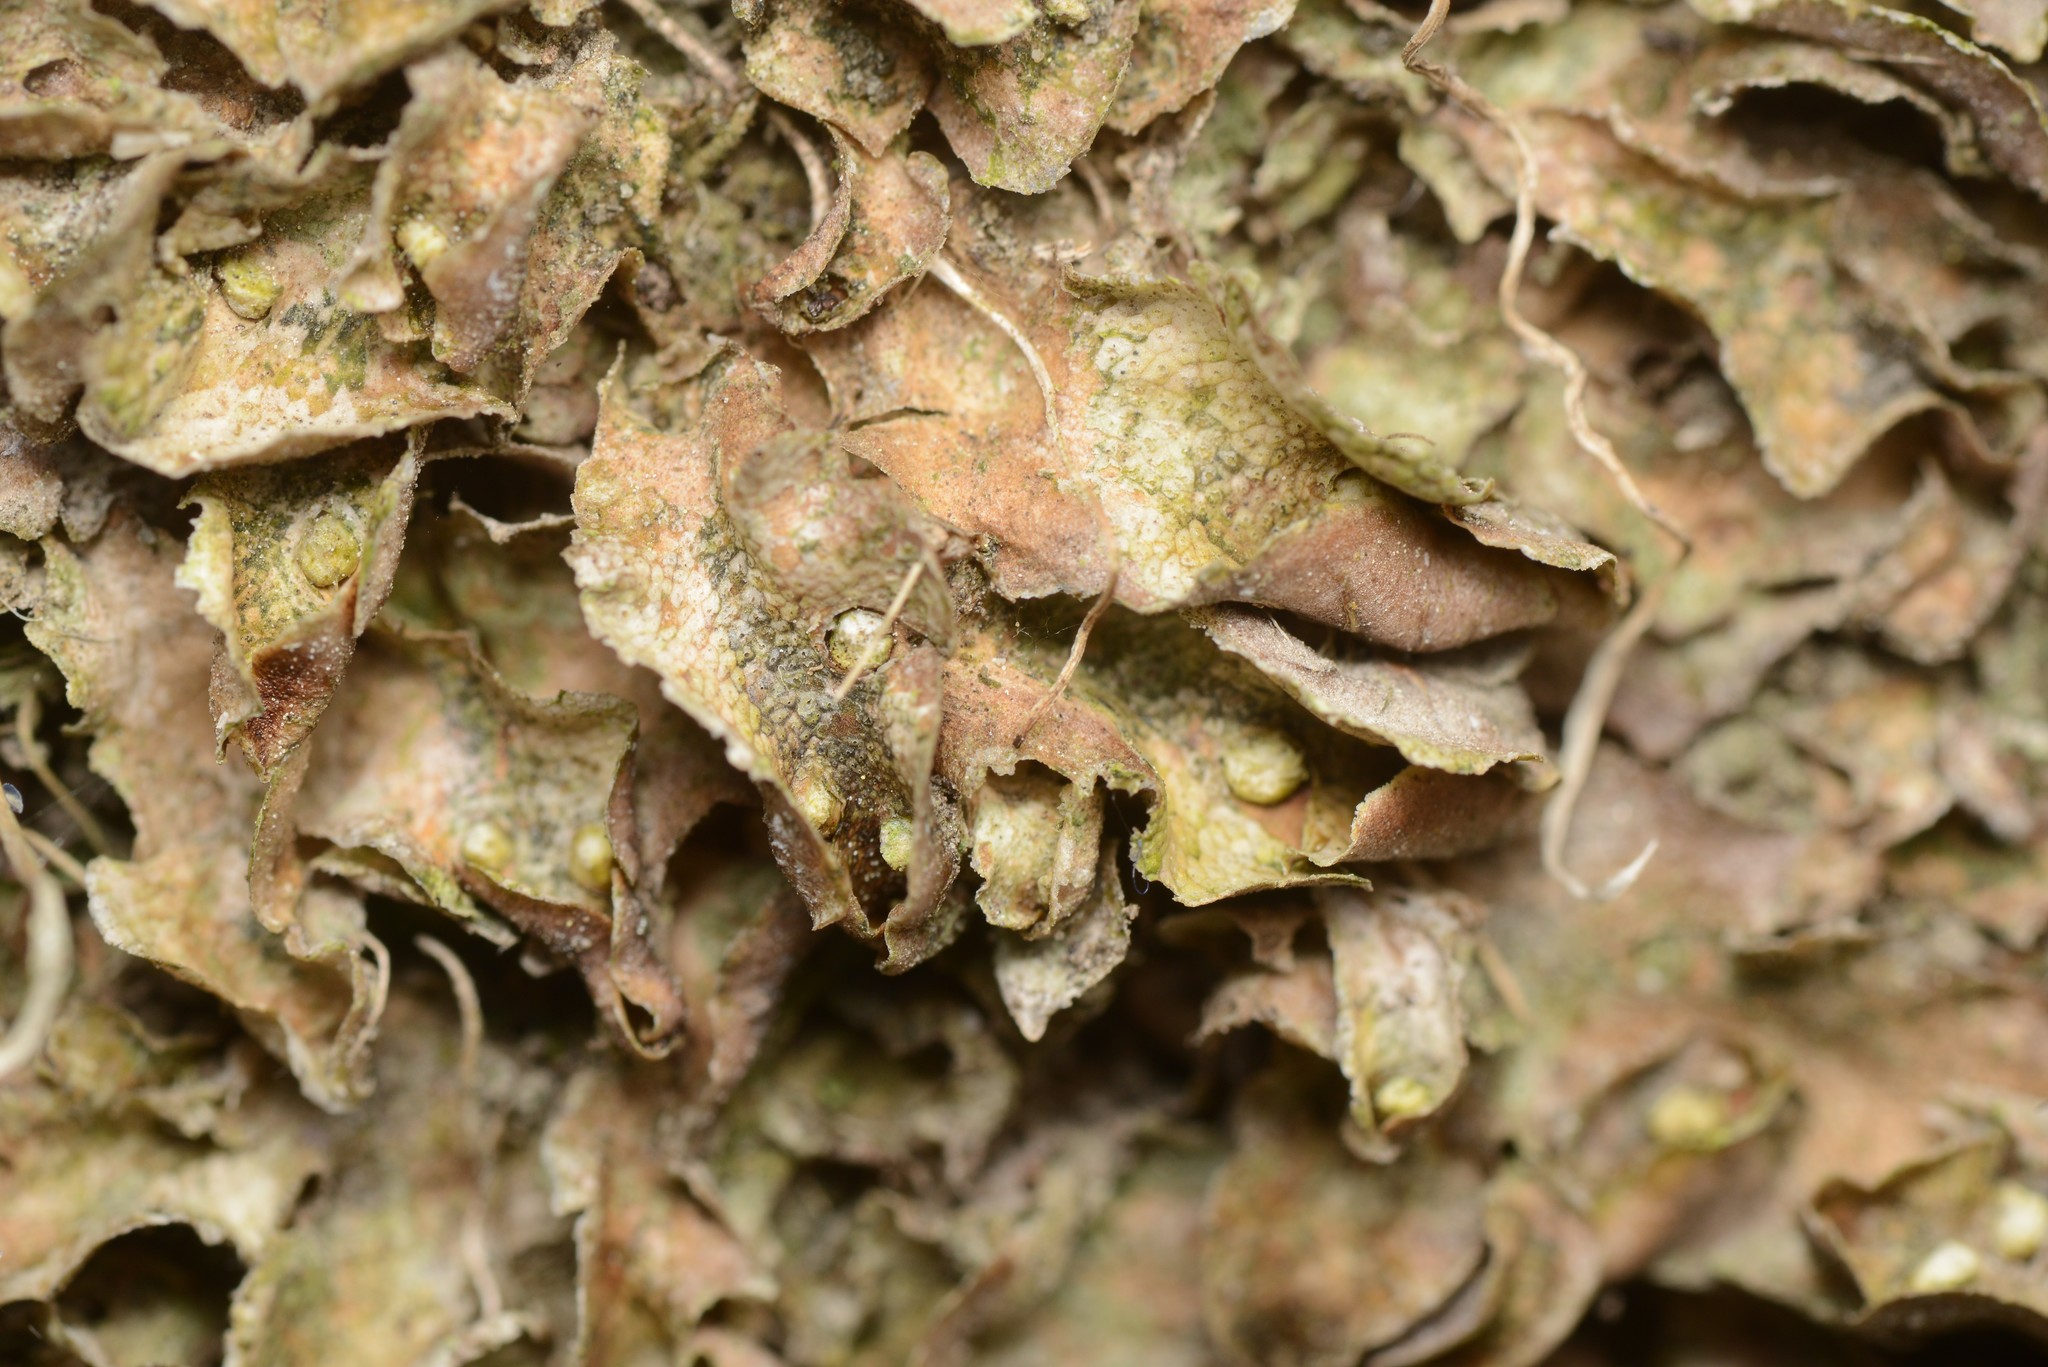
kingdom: Plantae
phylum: Marchantiophyta
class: Marchantiopsida
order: Lunulariales
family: Lunulariaceae
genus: Lunularia
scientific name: Lunularia cruciata
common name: Crescent-cup liverwort
